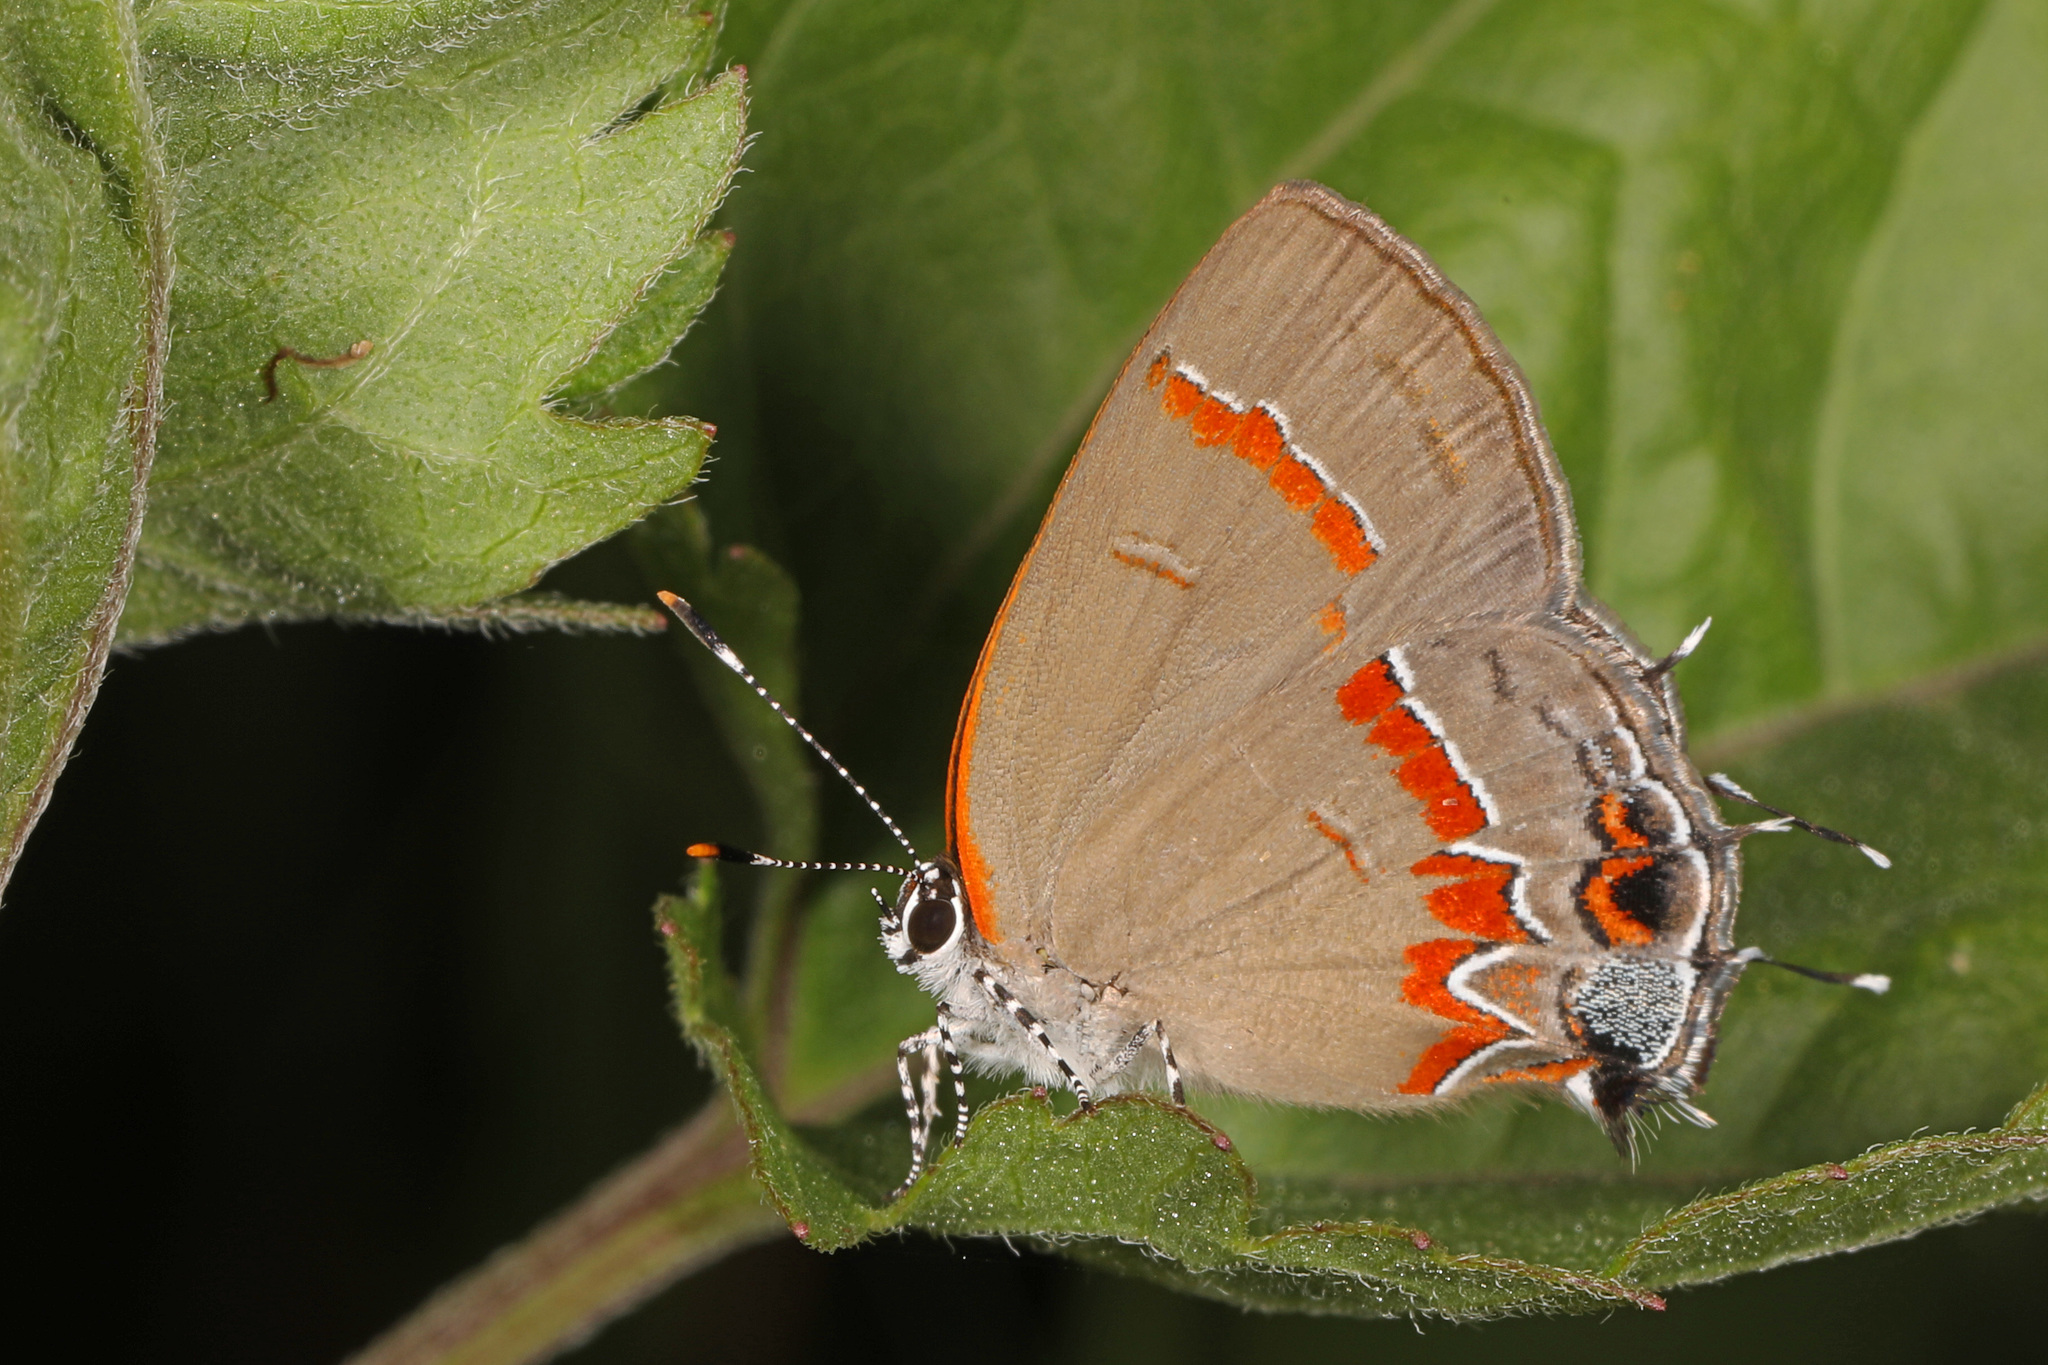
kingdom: Animalia
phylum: Arthropoda
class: Insecta
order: Lepidoptera
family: Lycaenidae
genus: Calycopis
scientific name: Calycopis cecrops
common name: Red-banded hairstreak
